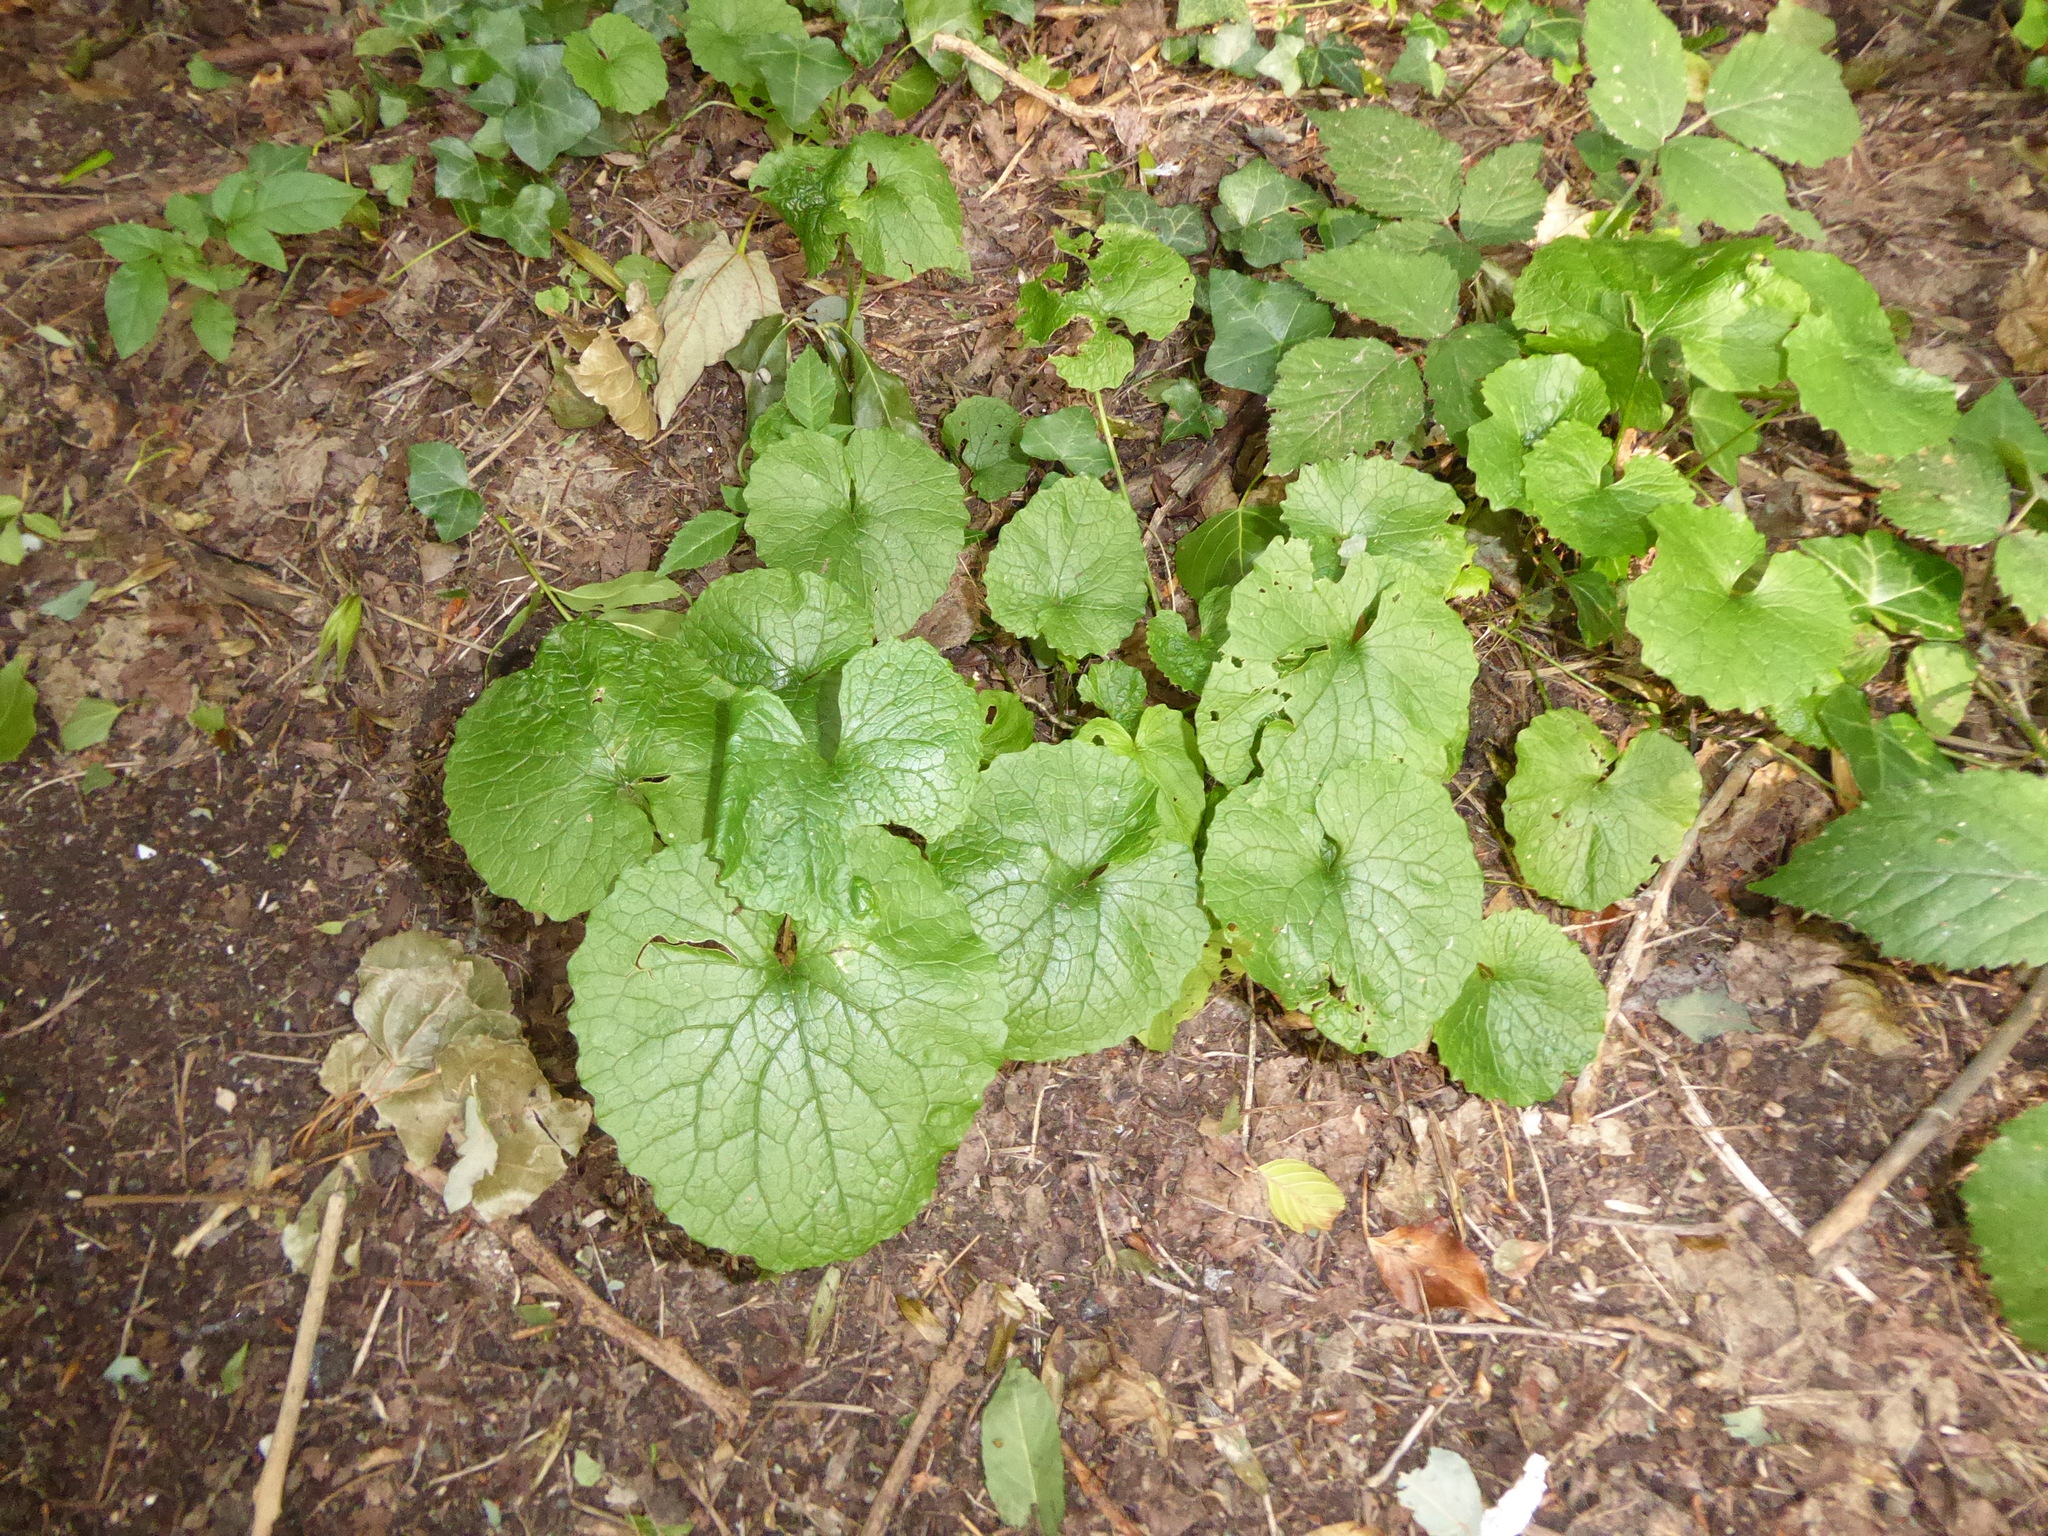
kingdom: Plantae
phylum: Tracheophyta
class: Magnoliopsida
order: Brassicales
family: Brassicaceae
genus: Alliaria
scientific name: Alliaria petiolata
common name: Garlic mustard
